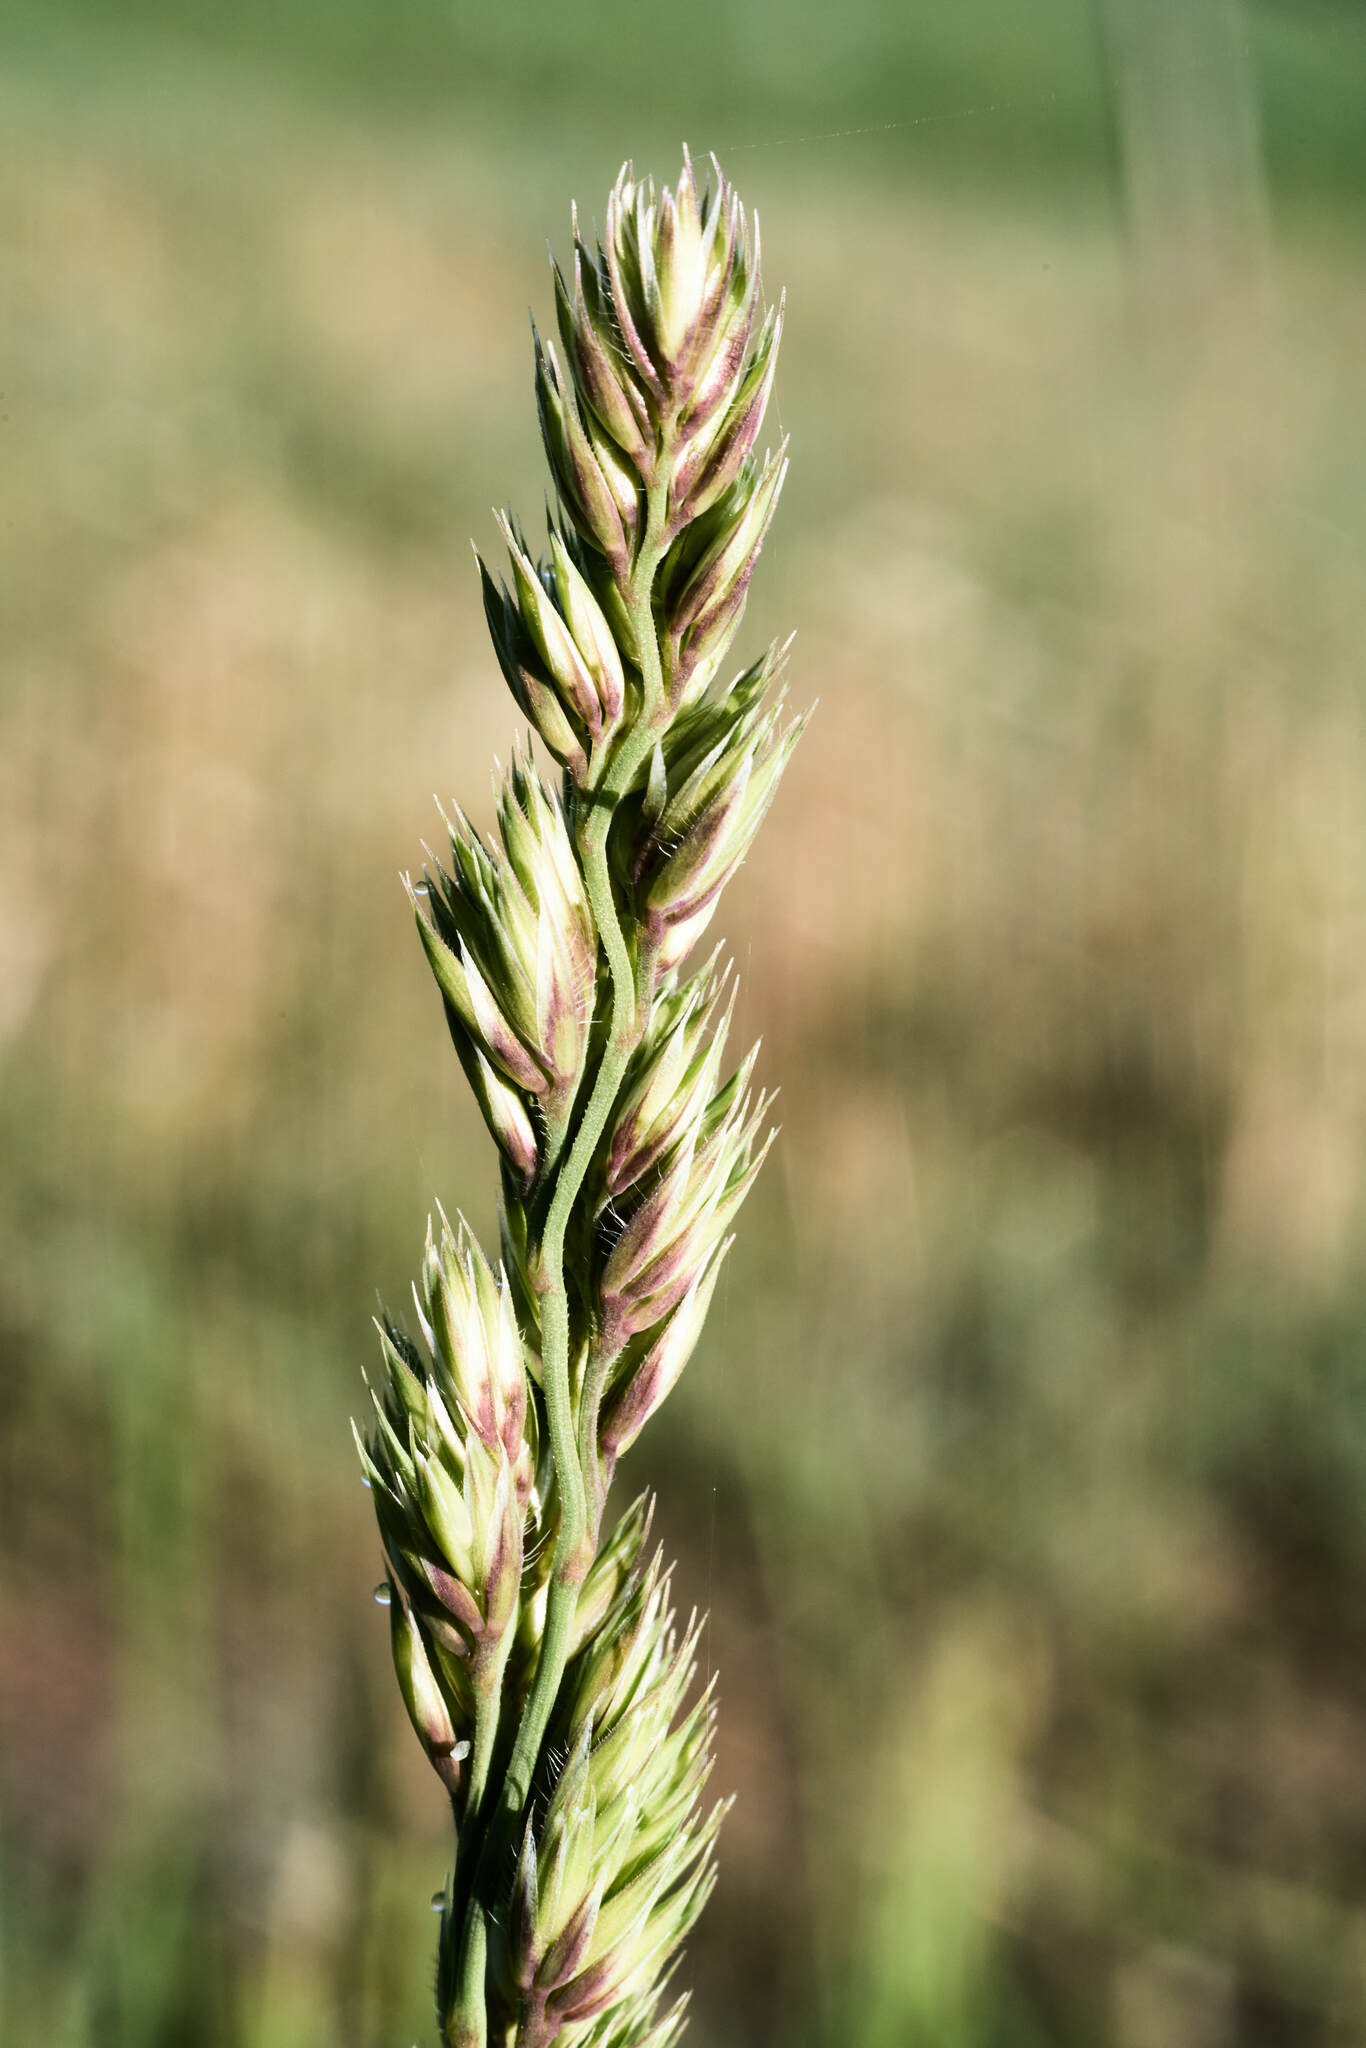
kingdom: Plantae
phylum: Tracheophyta
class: Liliopsida
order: Poales
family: Poaceae
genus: Dactylis
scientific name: Dactylis glomerata
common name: Orchardgrass
